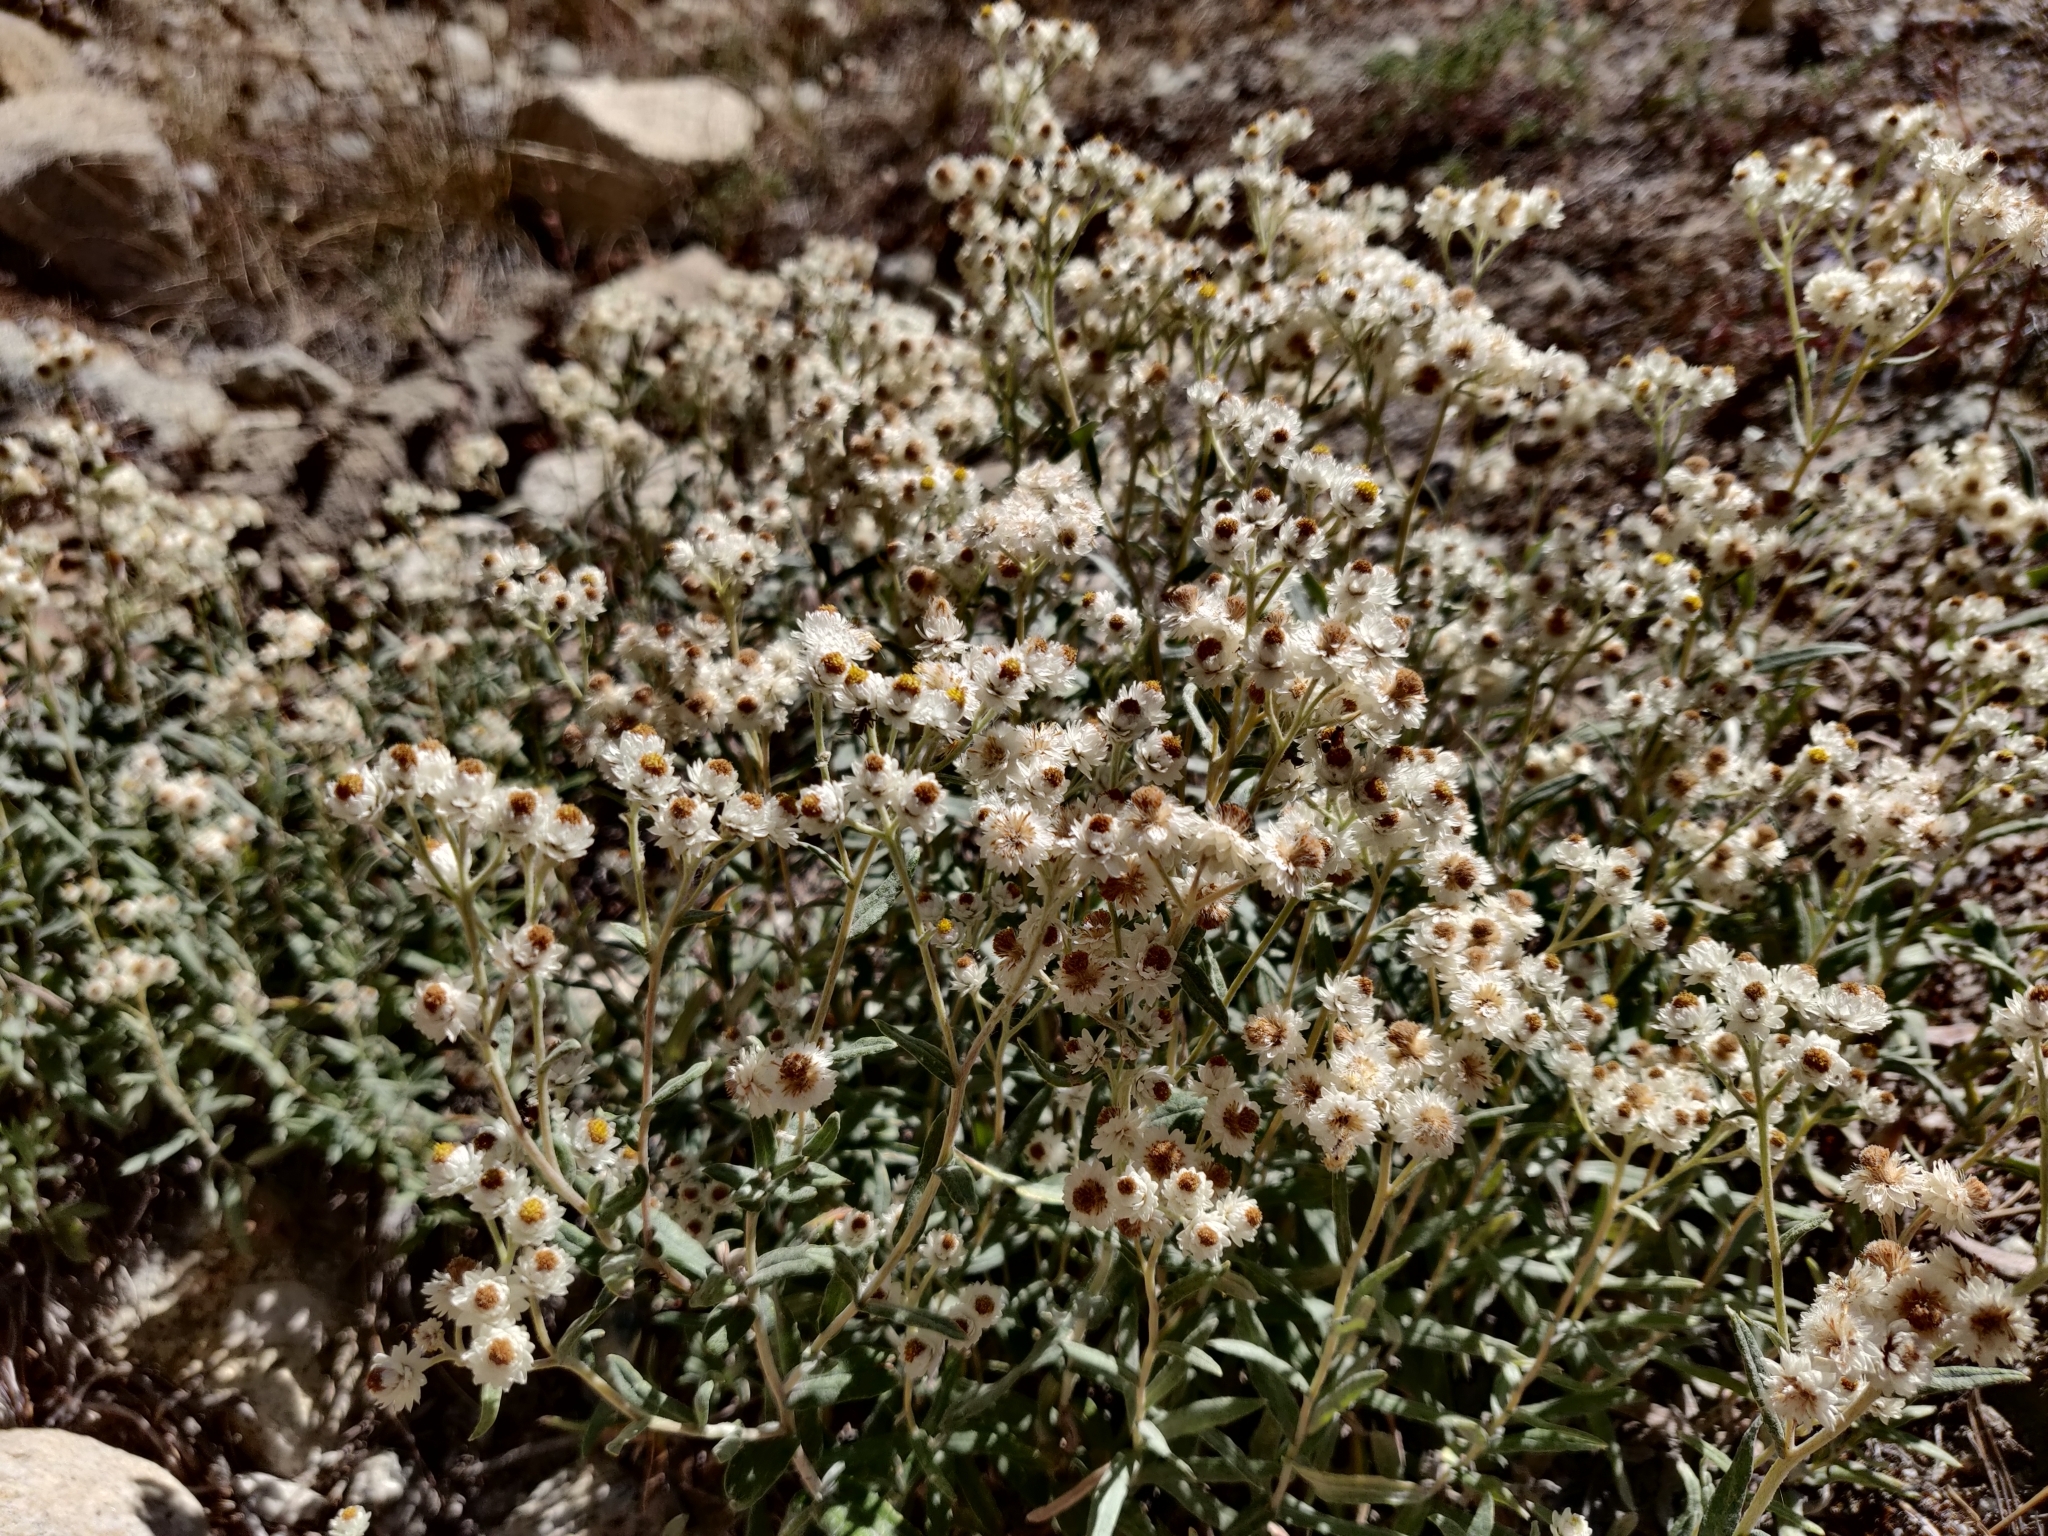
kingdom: Plantae
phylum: Tracheophyta
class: Magnoliopsida
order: Asterales
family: Asteraceae
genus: Anaphalis
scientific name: Anaphalis margaritacea
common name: Pearly everlasting
